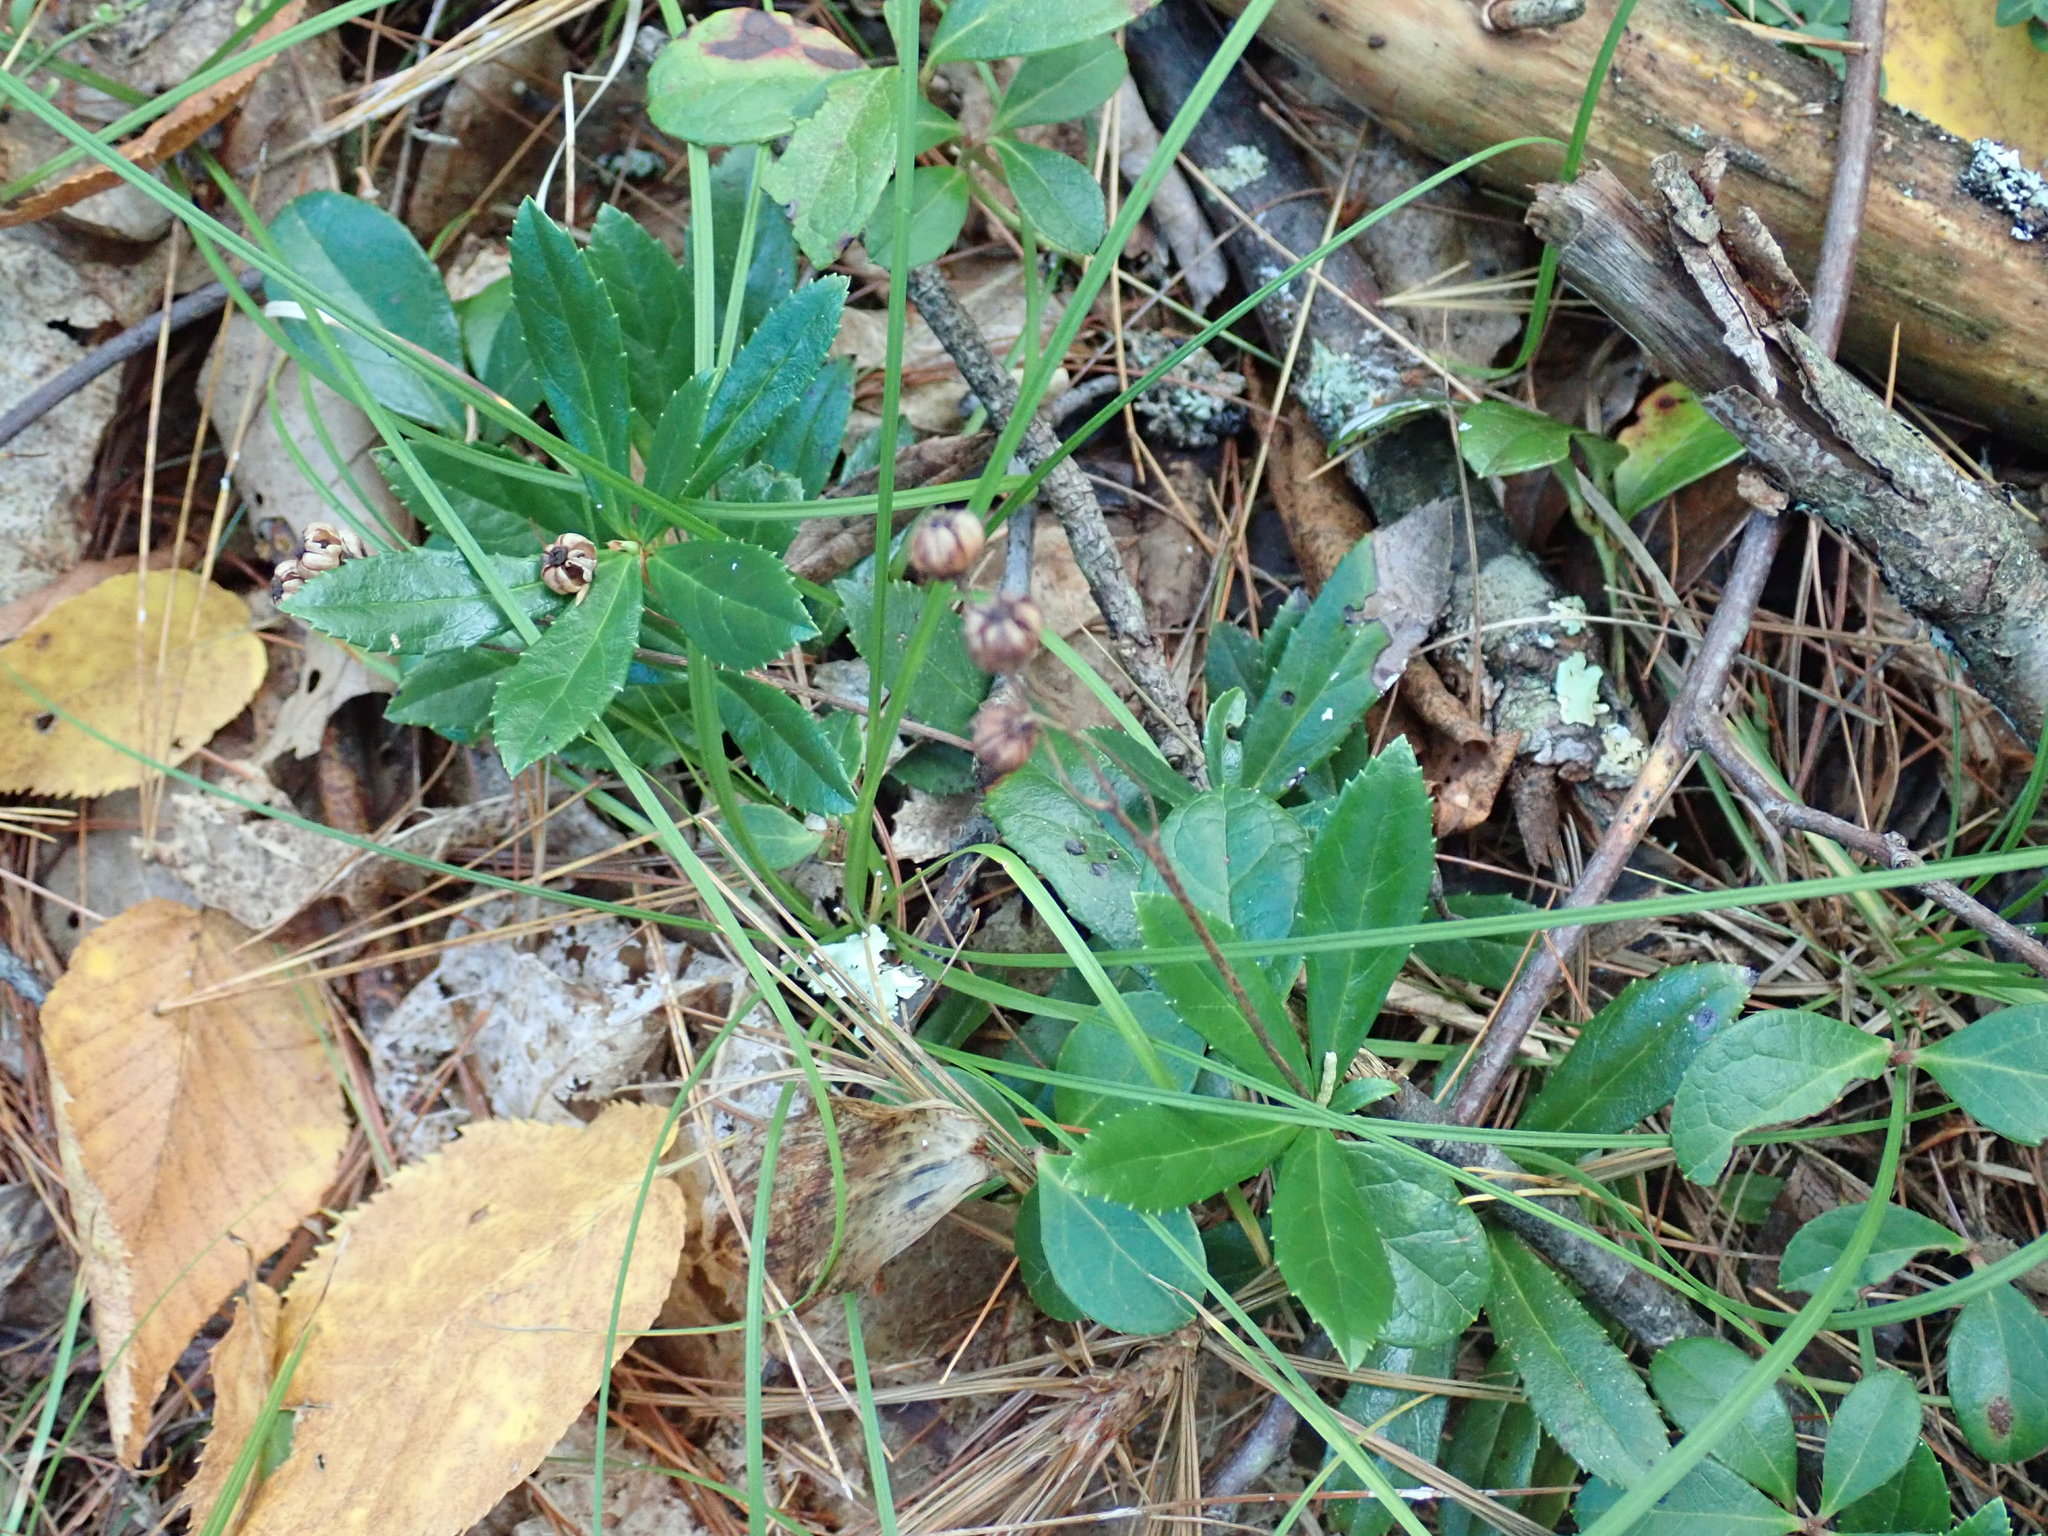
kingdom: Plantae
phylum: Tracheophyta
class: Magnoliopsida
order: Ericales
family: Ericaceae
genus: Chimaphila
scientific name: Chimaphila umbellata
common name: Pipsissewa
